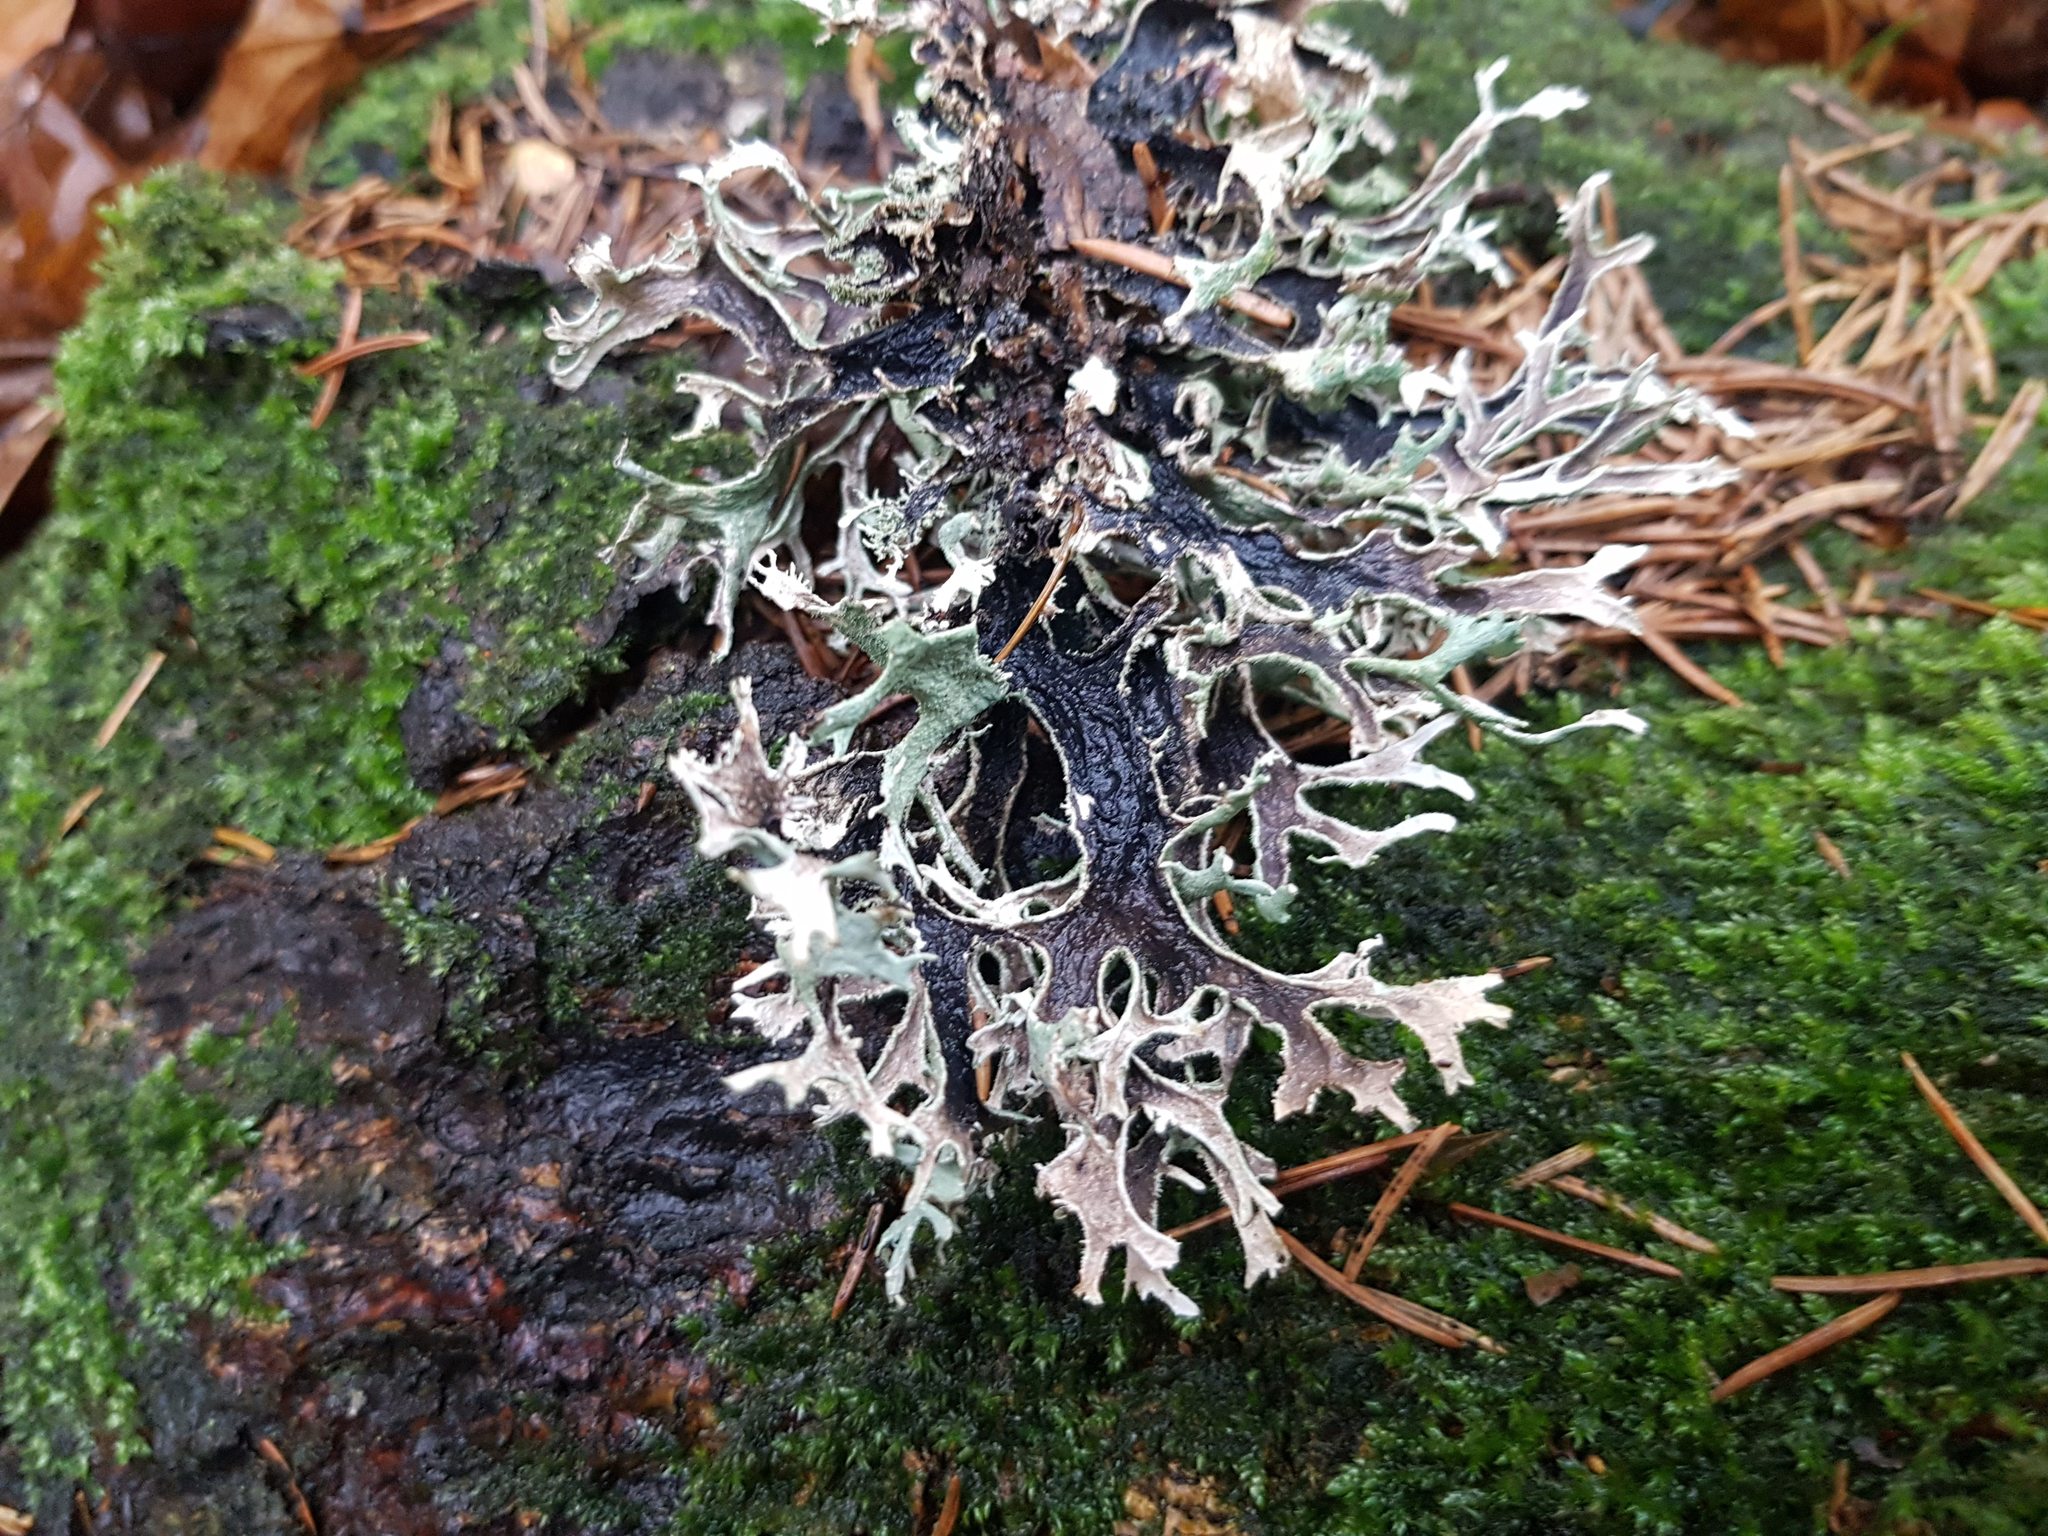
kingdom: Fungi
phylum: Ascomycota
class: Lecanoromycetes
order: Lecanorales
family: Parmeliaceae
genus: Pseudevernia
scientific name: Pseudevernia furfuracea
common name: Tree moss
